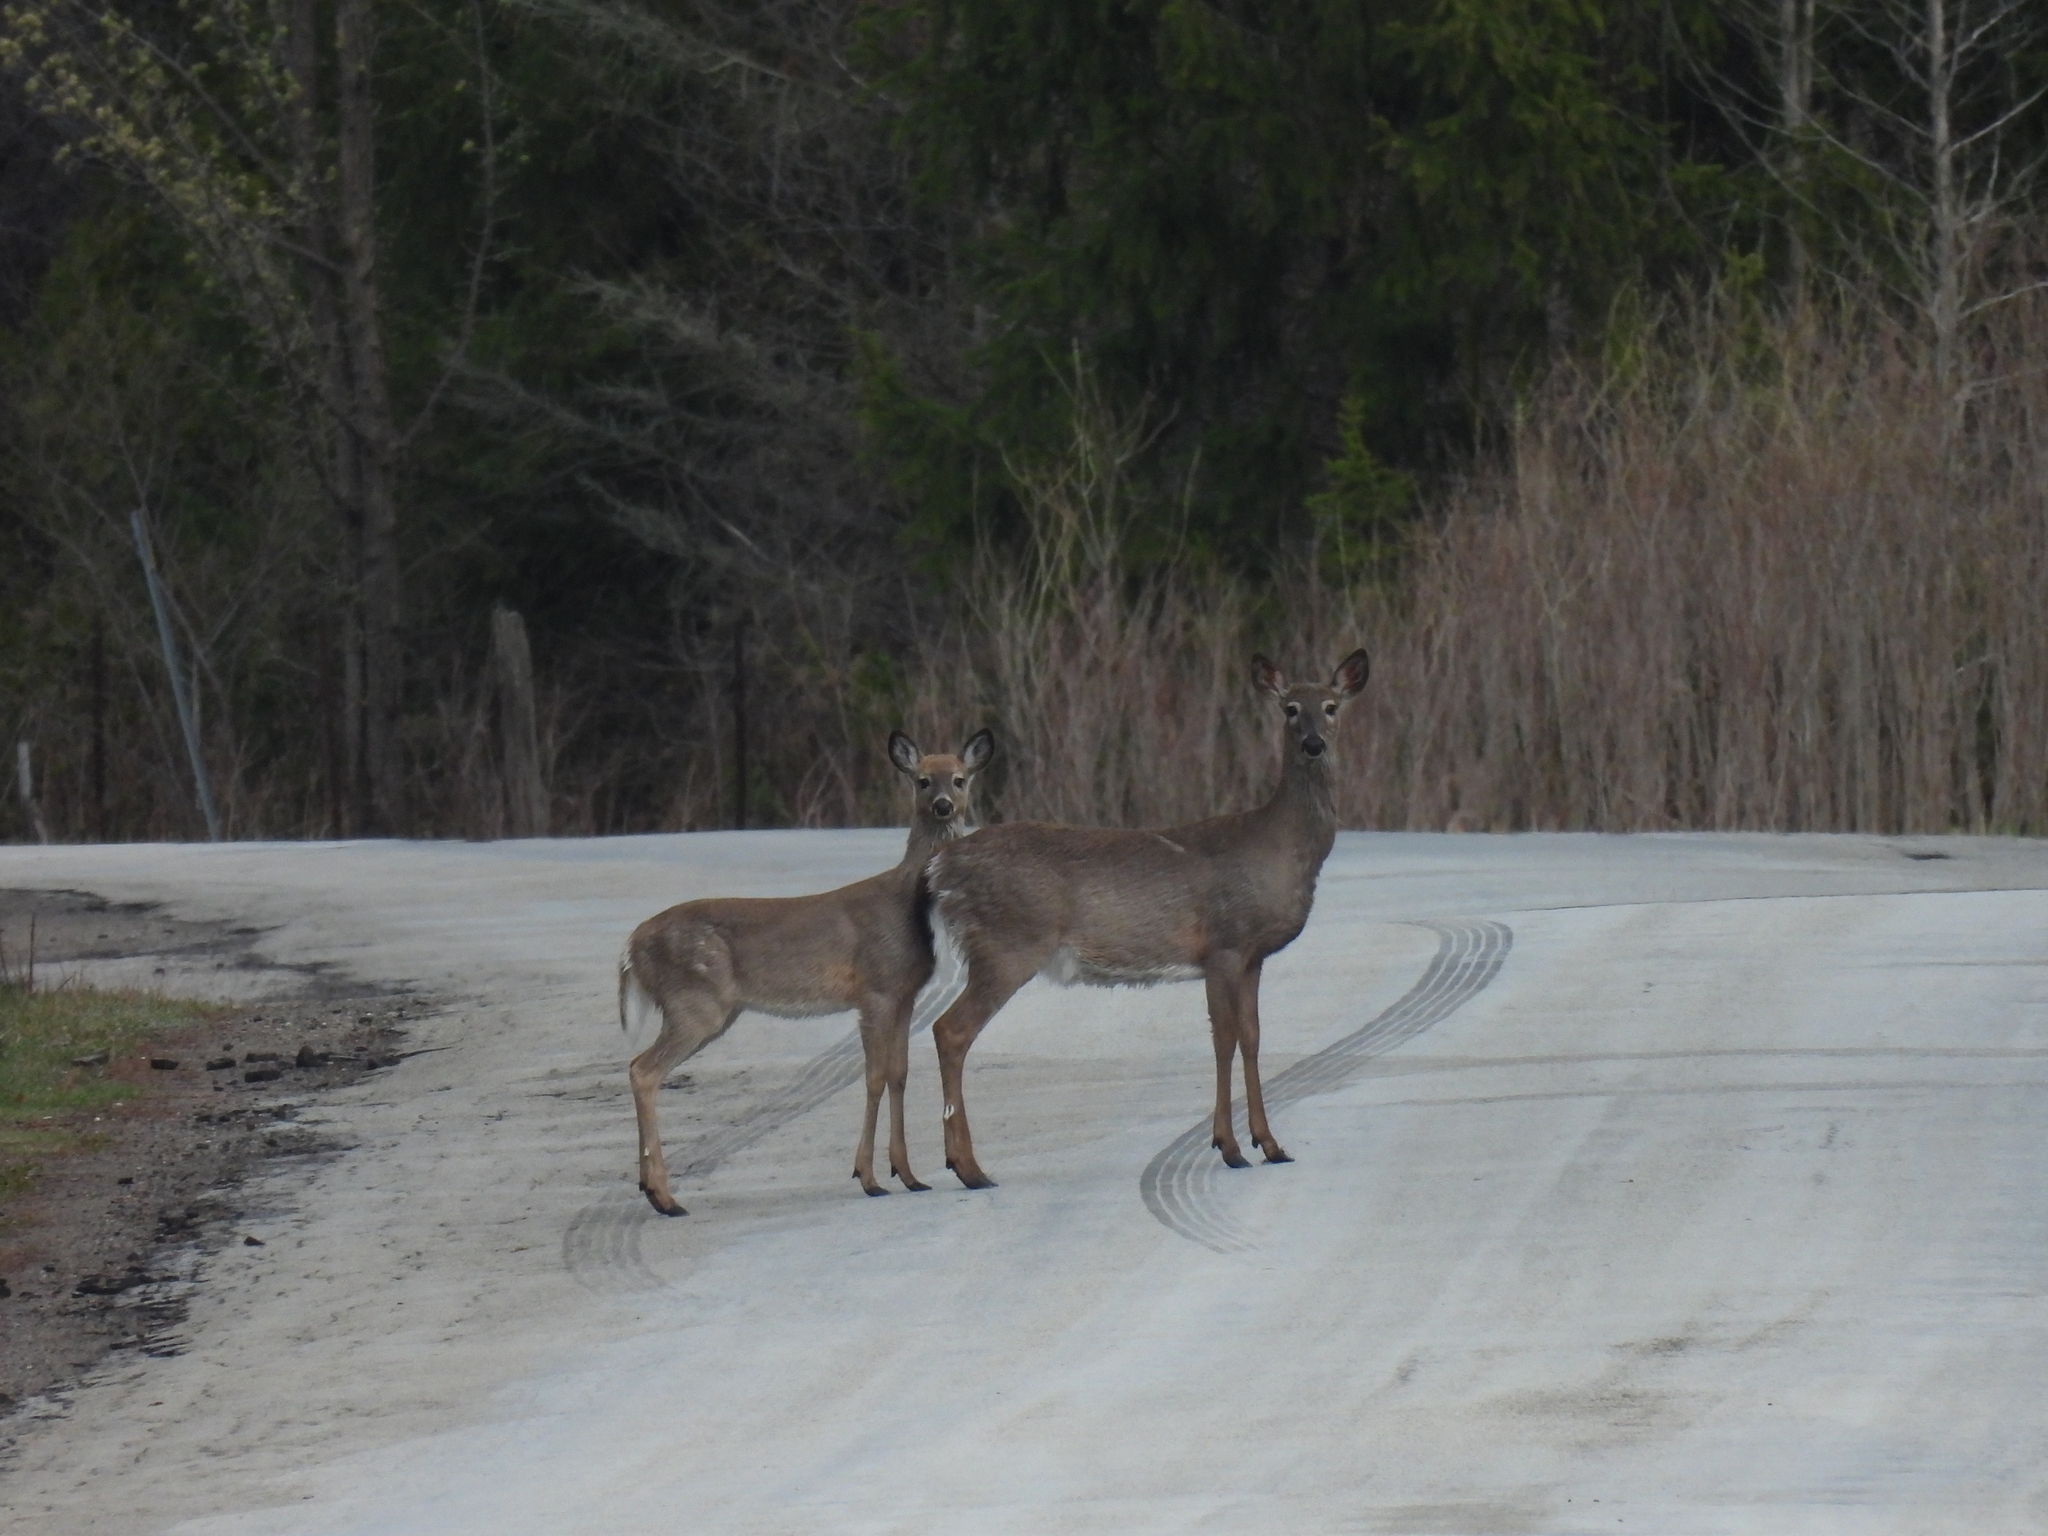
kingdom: Animalia
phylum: Chordata
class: Mammalia
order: Artiodactyla
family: Cervidae
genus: Odocoileus
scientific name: Odocoileus virginianus
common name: White-tailed deer
